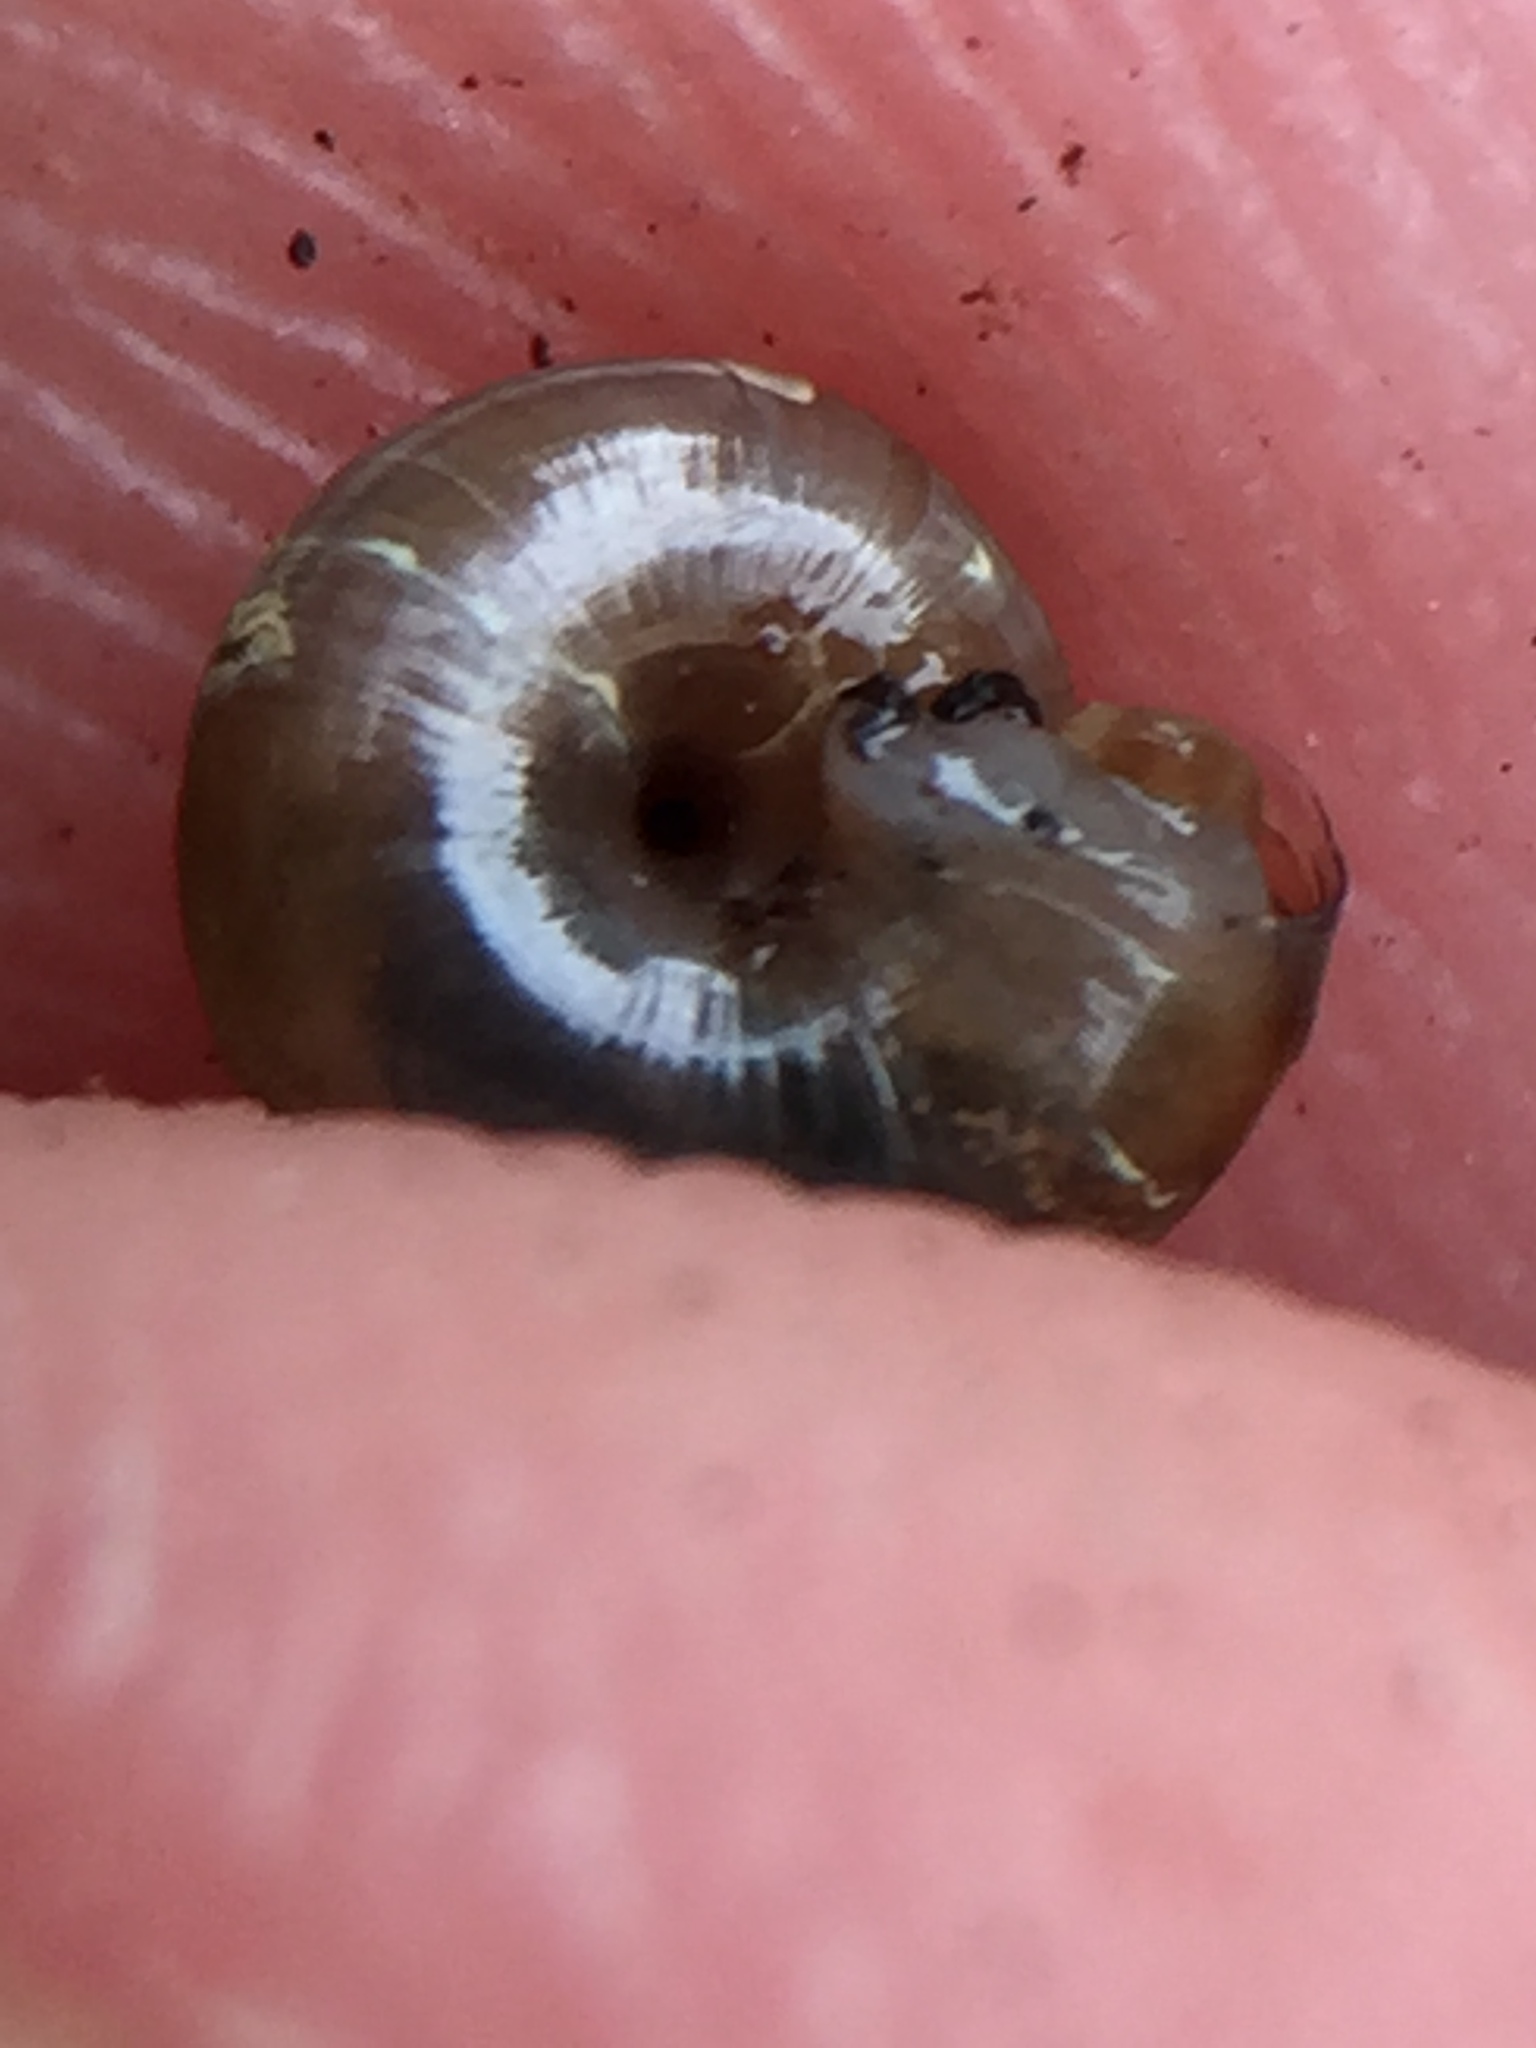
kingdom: Animalia
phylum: Mollusca
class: Gastropoda
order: Stylommatophora
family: Gastrodontidae
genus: Zonitoides
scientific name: Zonitoides arboreus
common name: Quick gloss
